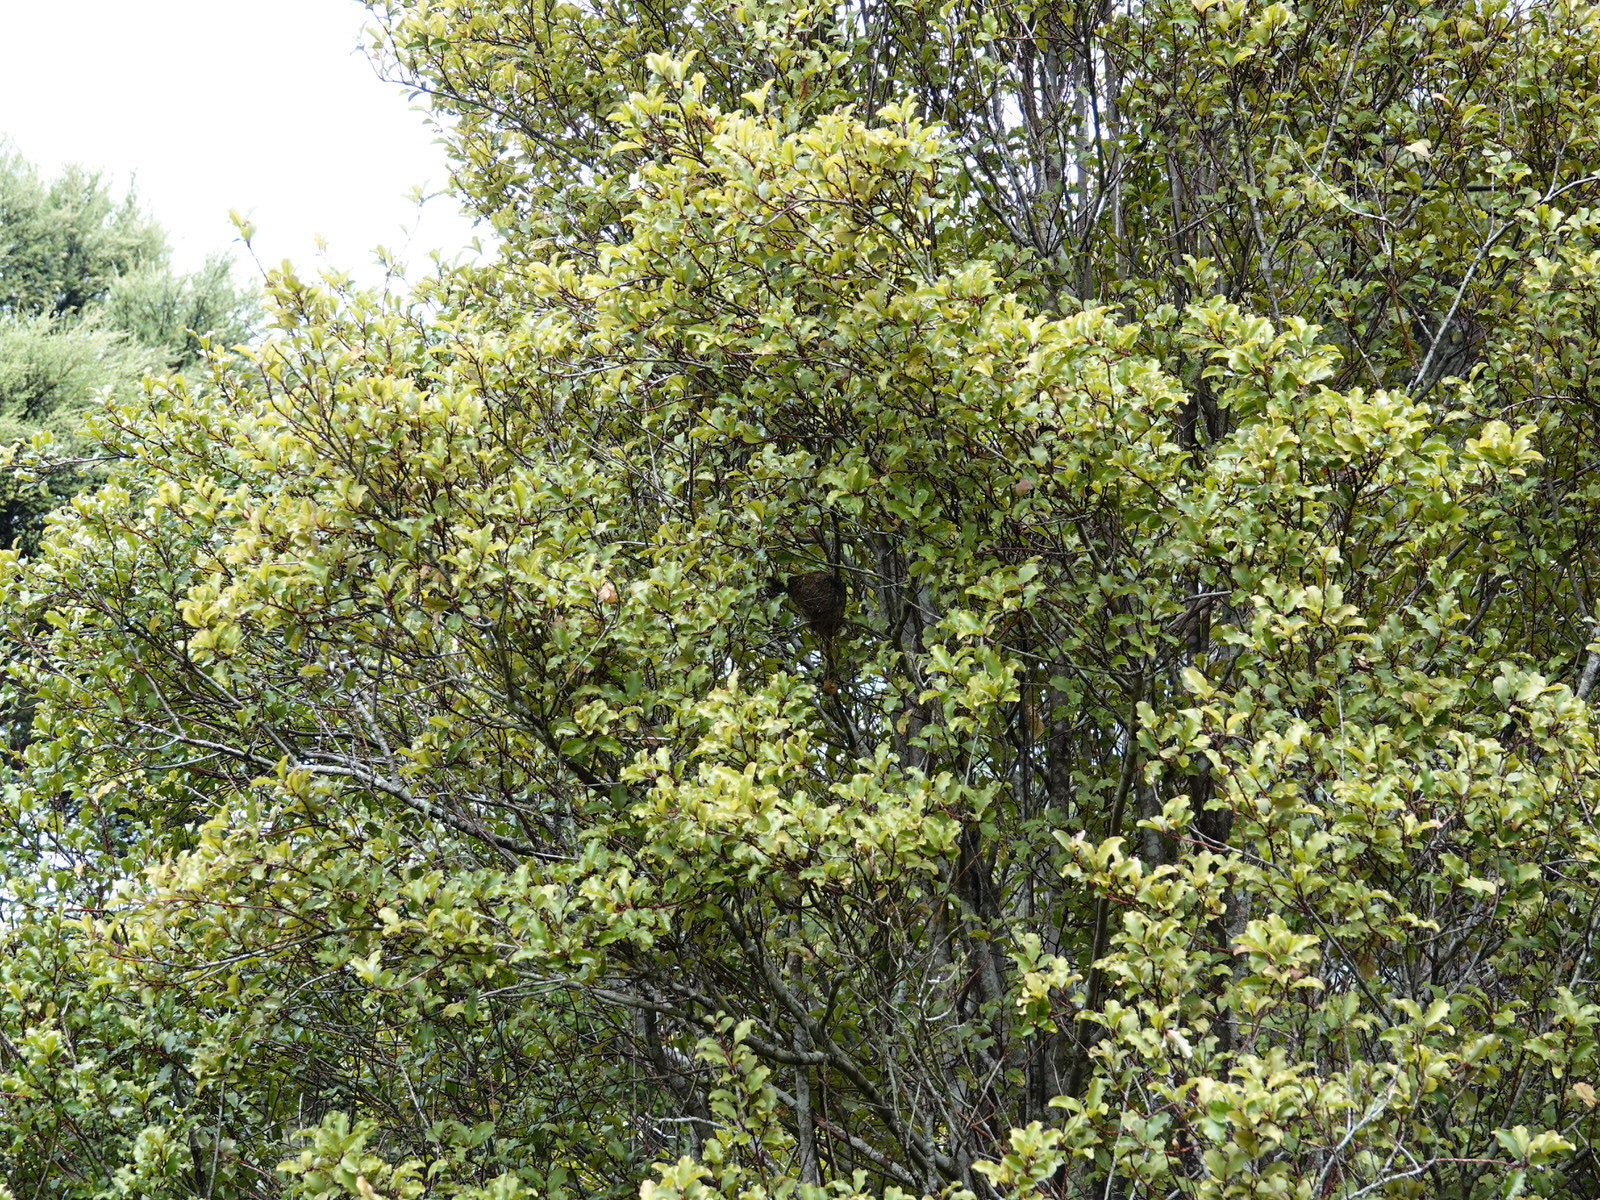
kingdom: Animalia
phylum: Chordata
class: Aves
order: Passeriformes
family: Rhipiduridae
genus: Rhipidura
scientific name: Rhipidura fuliginosa
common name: New zealand fantail
